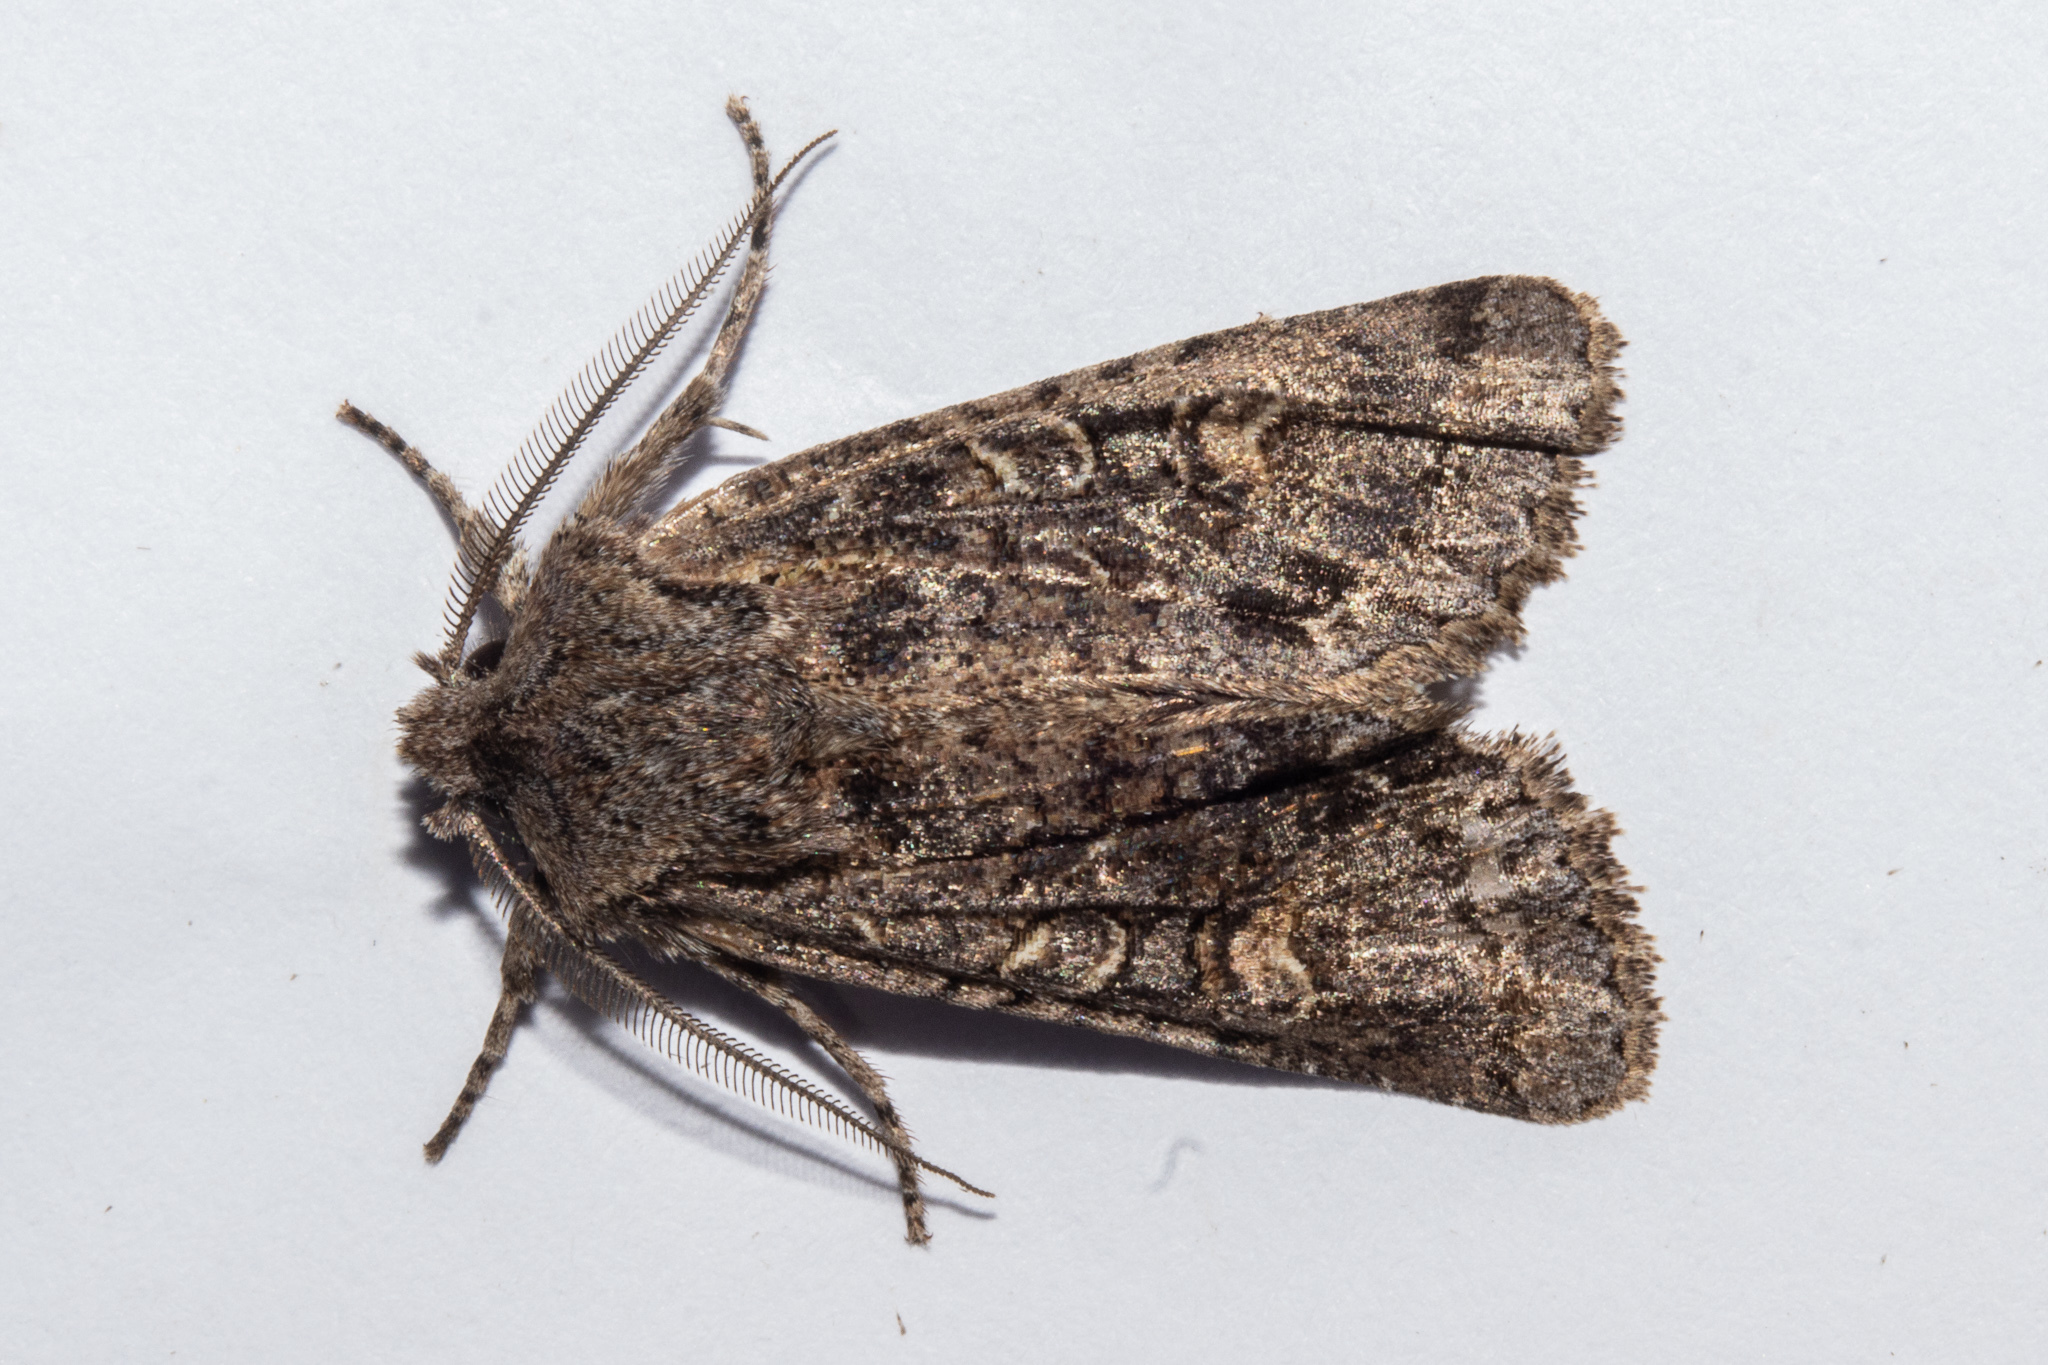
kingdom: Animalia
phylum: Arthropoda
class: Insecta
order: Lepidoptera
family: Noctuidae
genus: Ichneutica
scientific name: Ichneutica mutans
